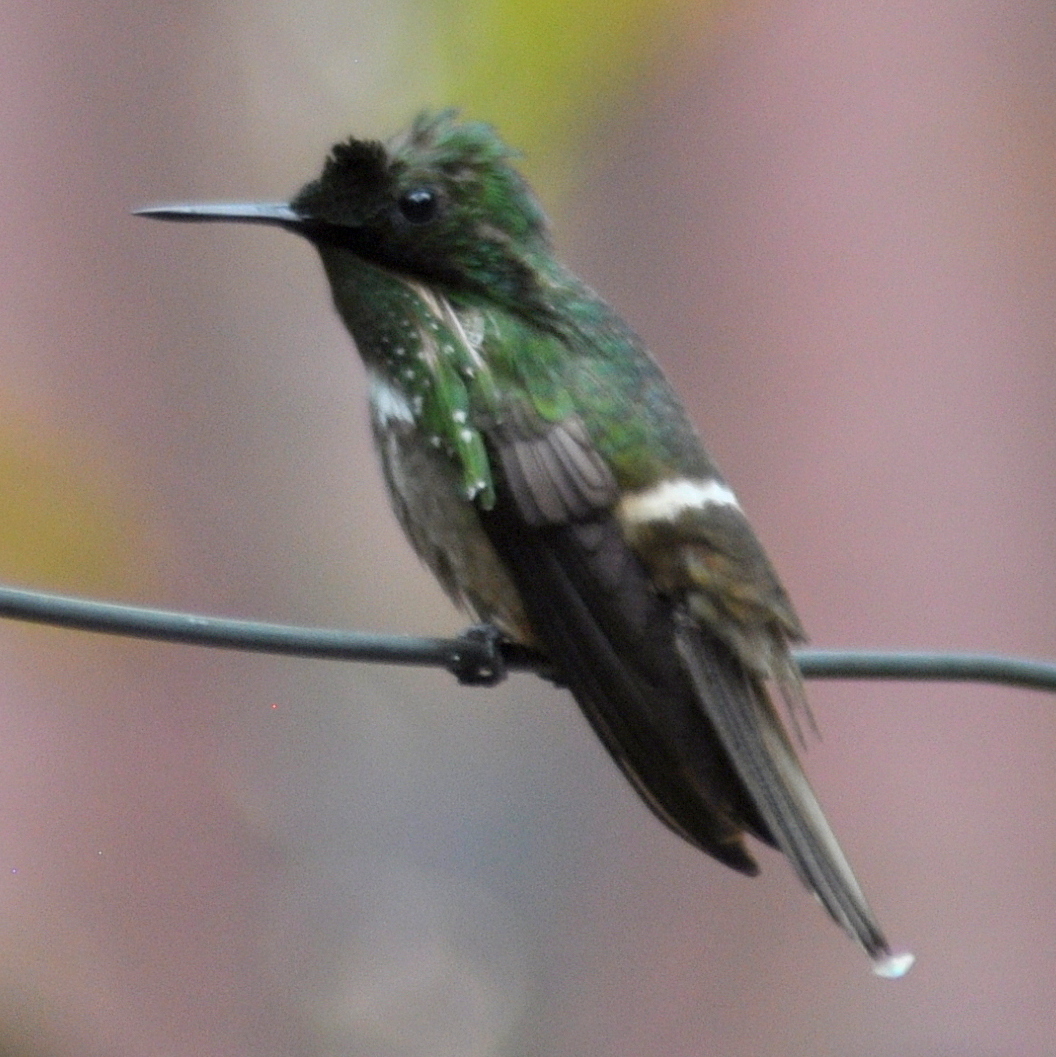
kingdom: Animalia
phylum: Chordata
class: Aves
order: Apodiformes
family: Trochilidae
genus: Lophornis
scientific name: Lophornis chalybeus
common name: Festive coquette
